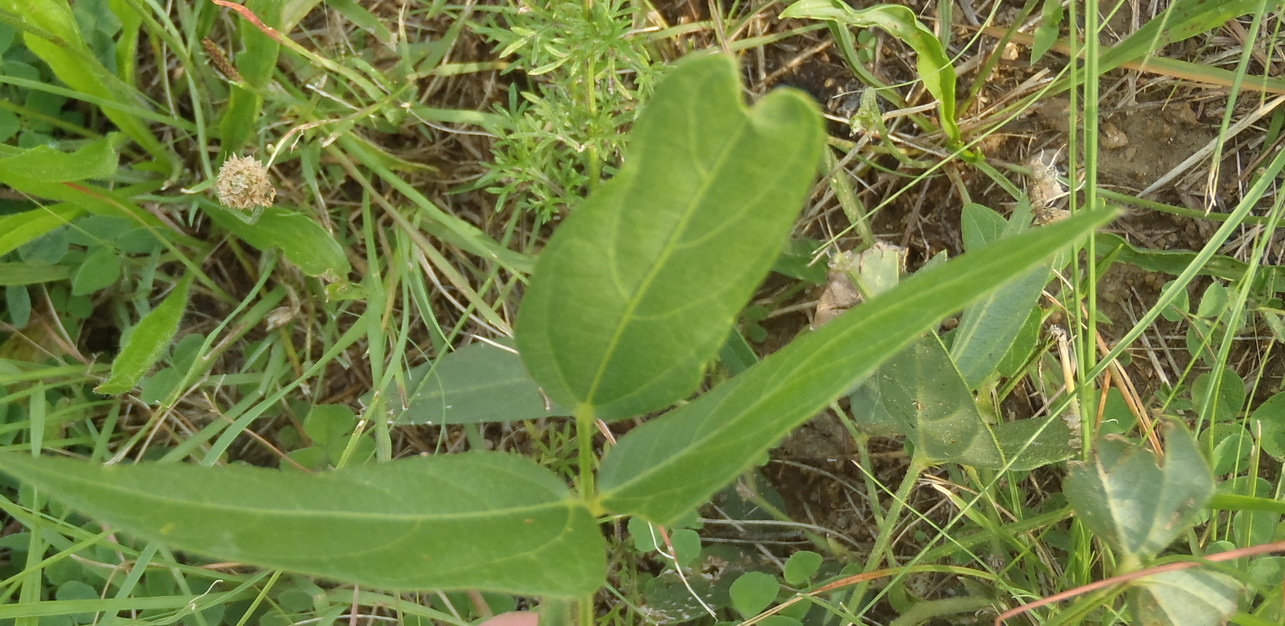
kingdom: Plantae
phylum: Tracheophyta
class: Magnoliopsida
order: Fabales
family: Fabaceae
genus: Vigna
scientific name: Vigna vexillata
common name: Zombi pea
